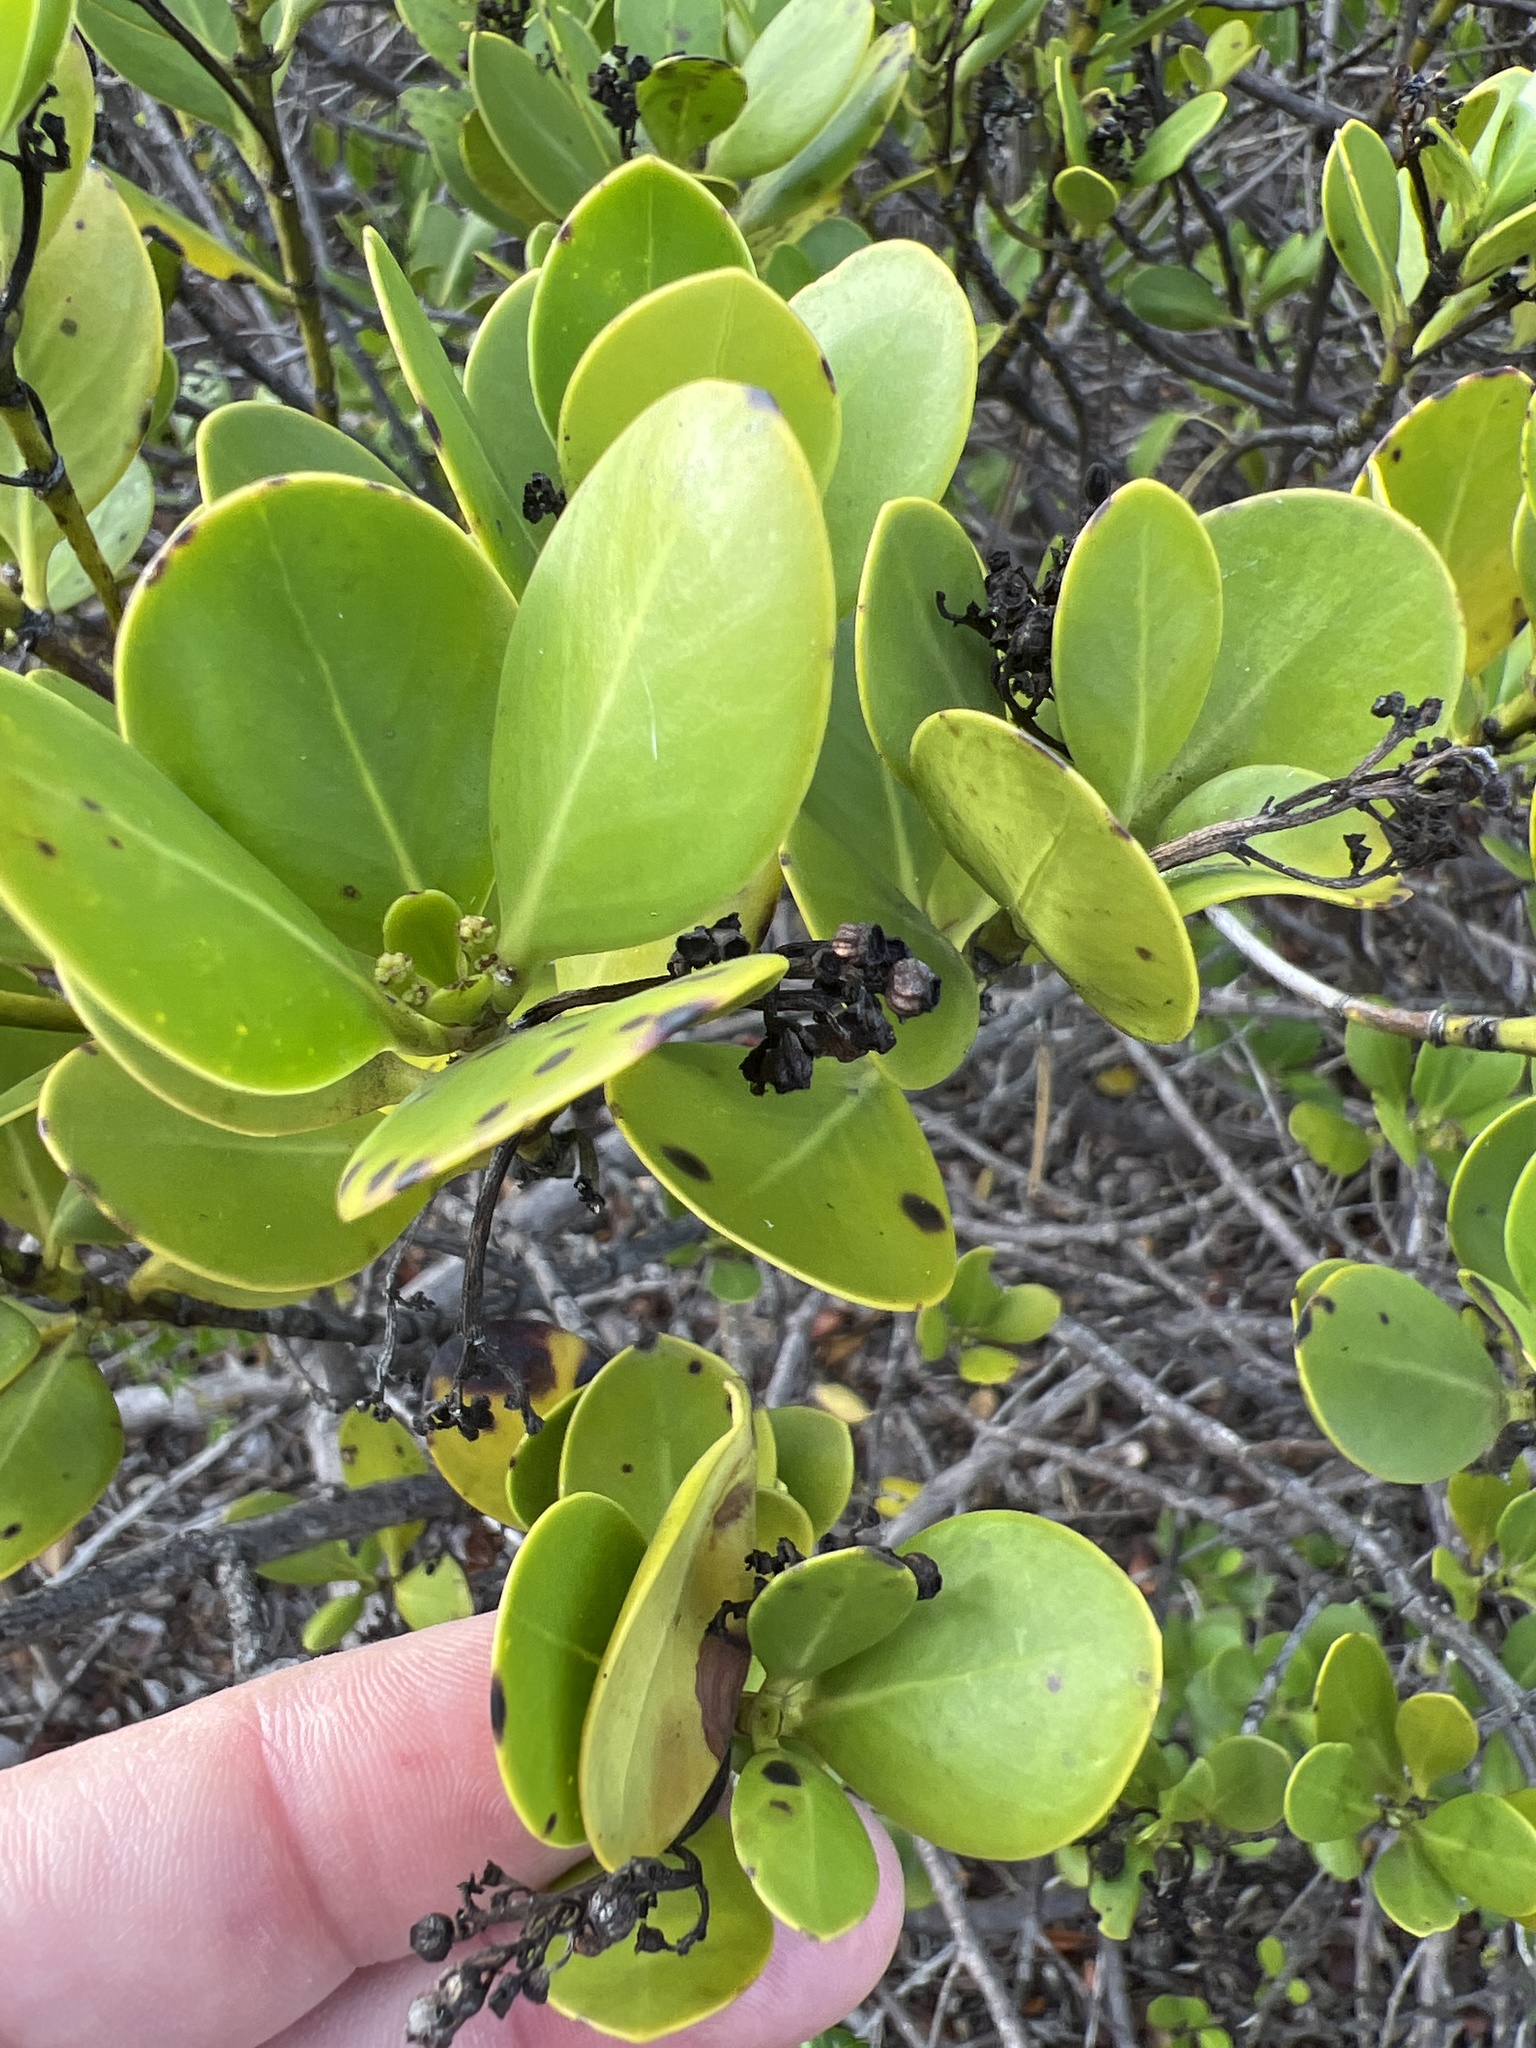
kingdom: Plantae
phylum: Tracheophyta
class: Magnoliopsida
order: Gentianales
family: Rubiaceae
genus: Erithalis
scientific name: Erithalis fruticosa
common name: Candlewood
